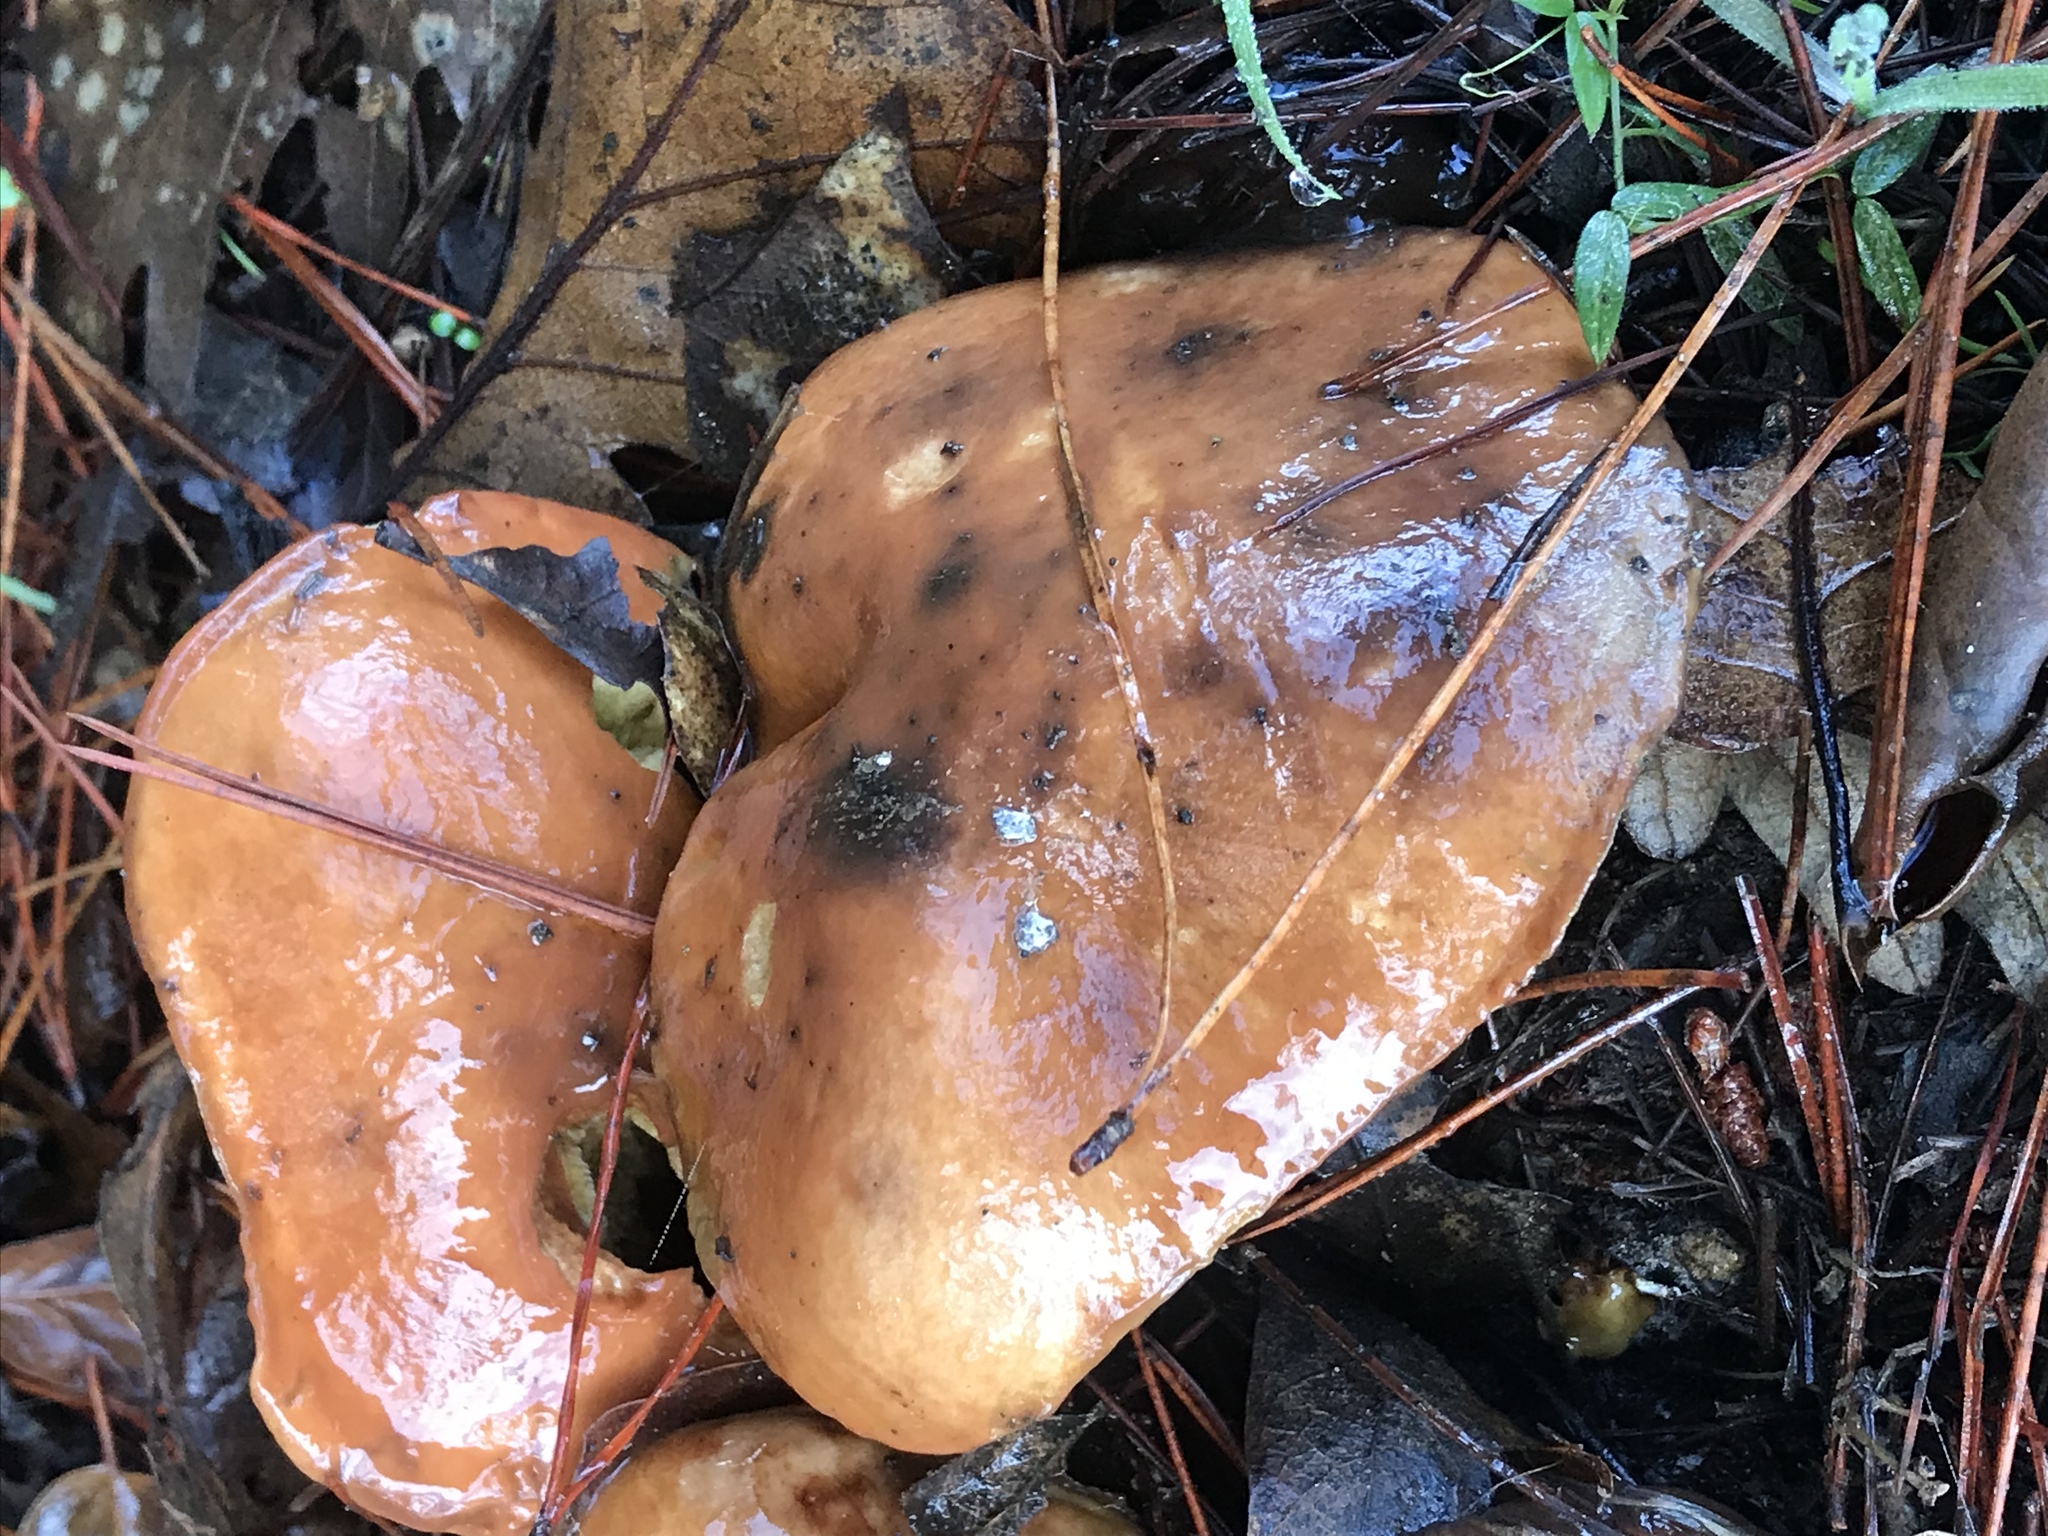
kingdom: Fungi
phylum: Basidiomycota
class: Agaricomycetes
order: Boletales
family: Suillaceae
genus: Suillus
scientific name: Suillus pungens
